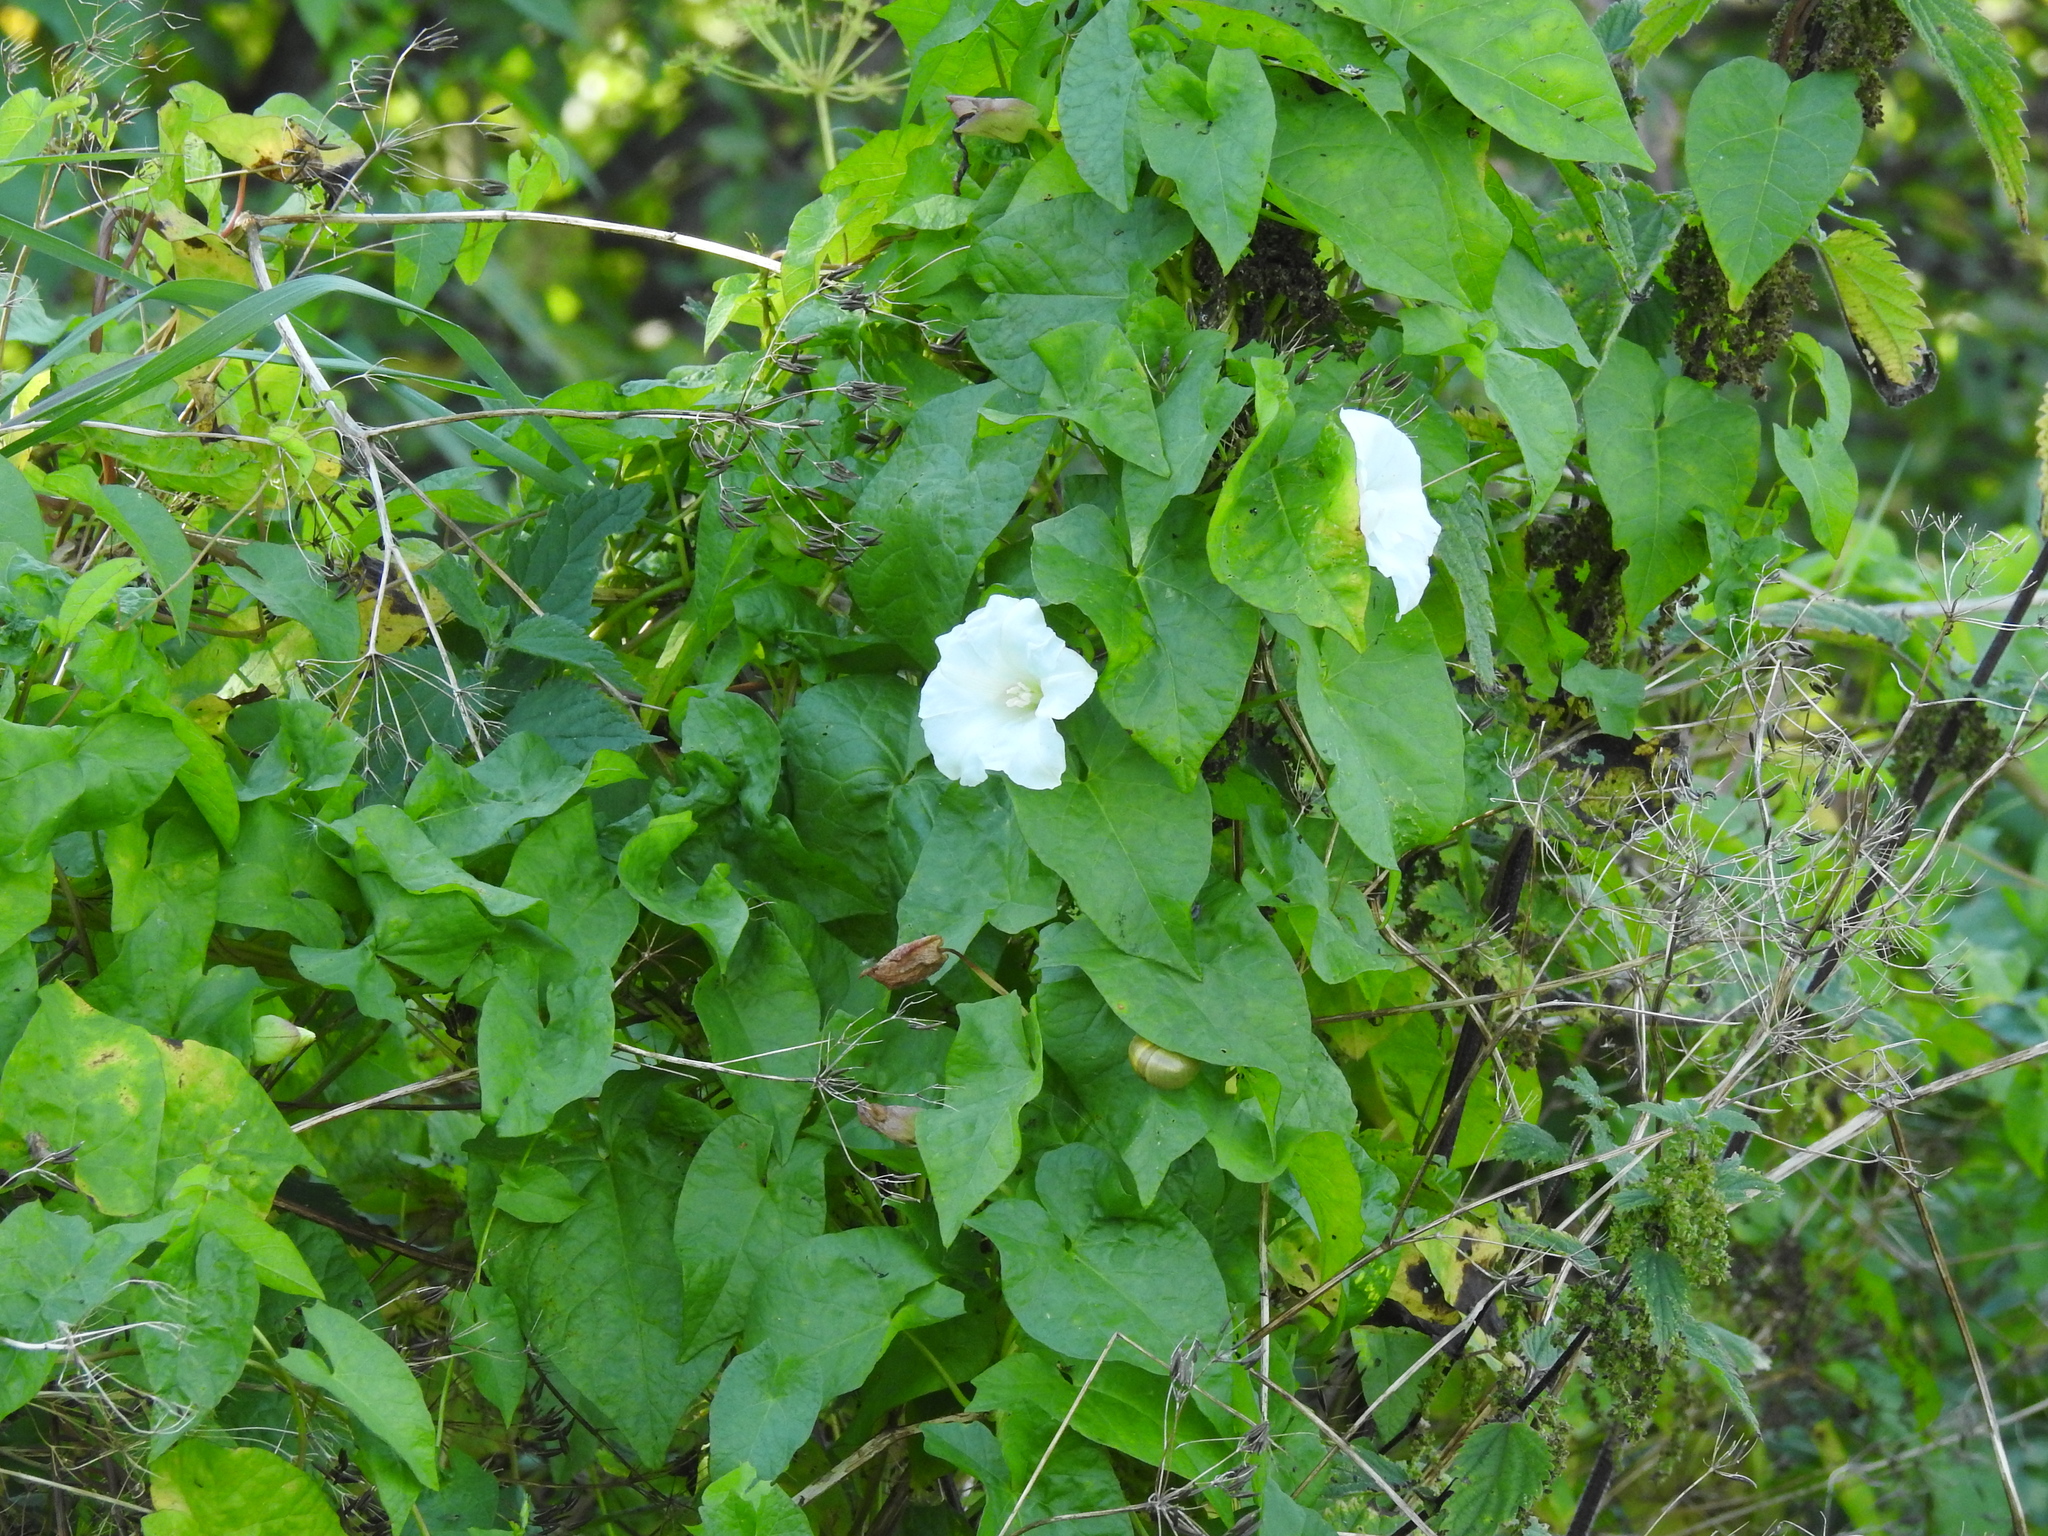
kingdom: Plantae
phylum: Tracheophyta
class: Magnoliopsida
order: Solanales
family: Convolvulaceae
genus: Calystegia
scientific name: Calystegia sepium
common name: Hedge bindweed
